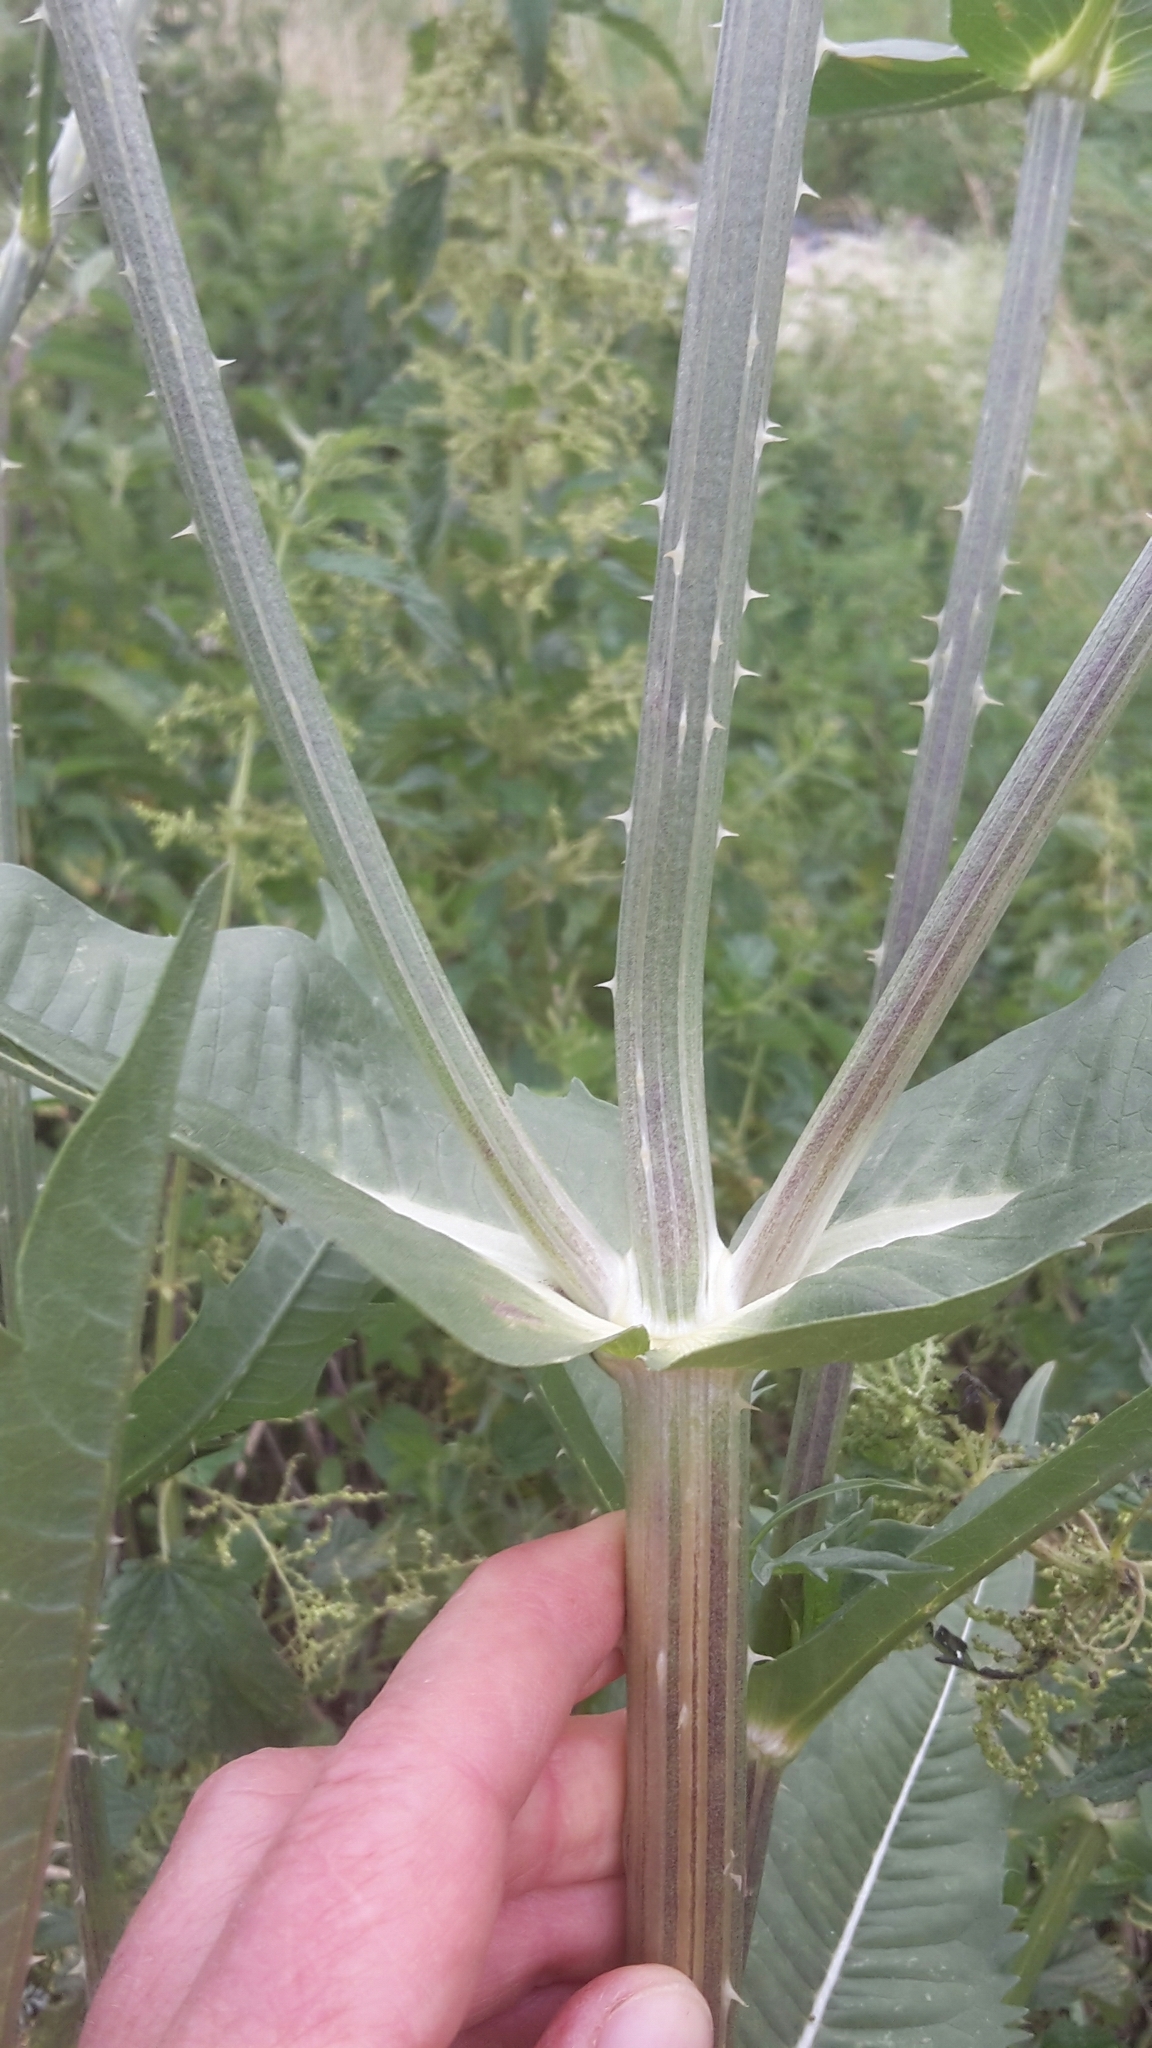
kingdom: Plantae
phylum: Tracheophyta
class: Magnoliopsida
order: Dipsacales
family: Caprifoliaceae
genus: Dipsacus
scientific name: Dipsacus fullonum
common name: Teasel
